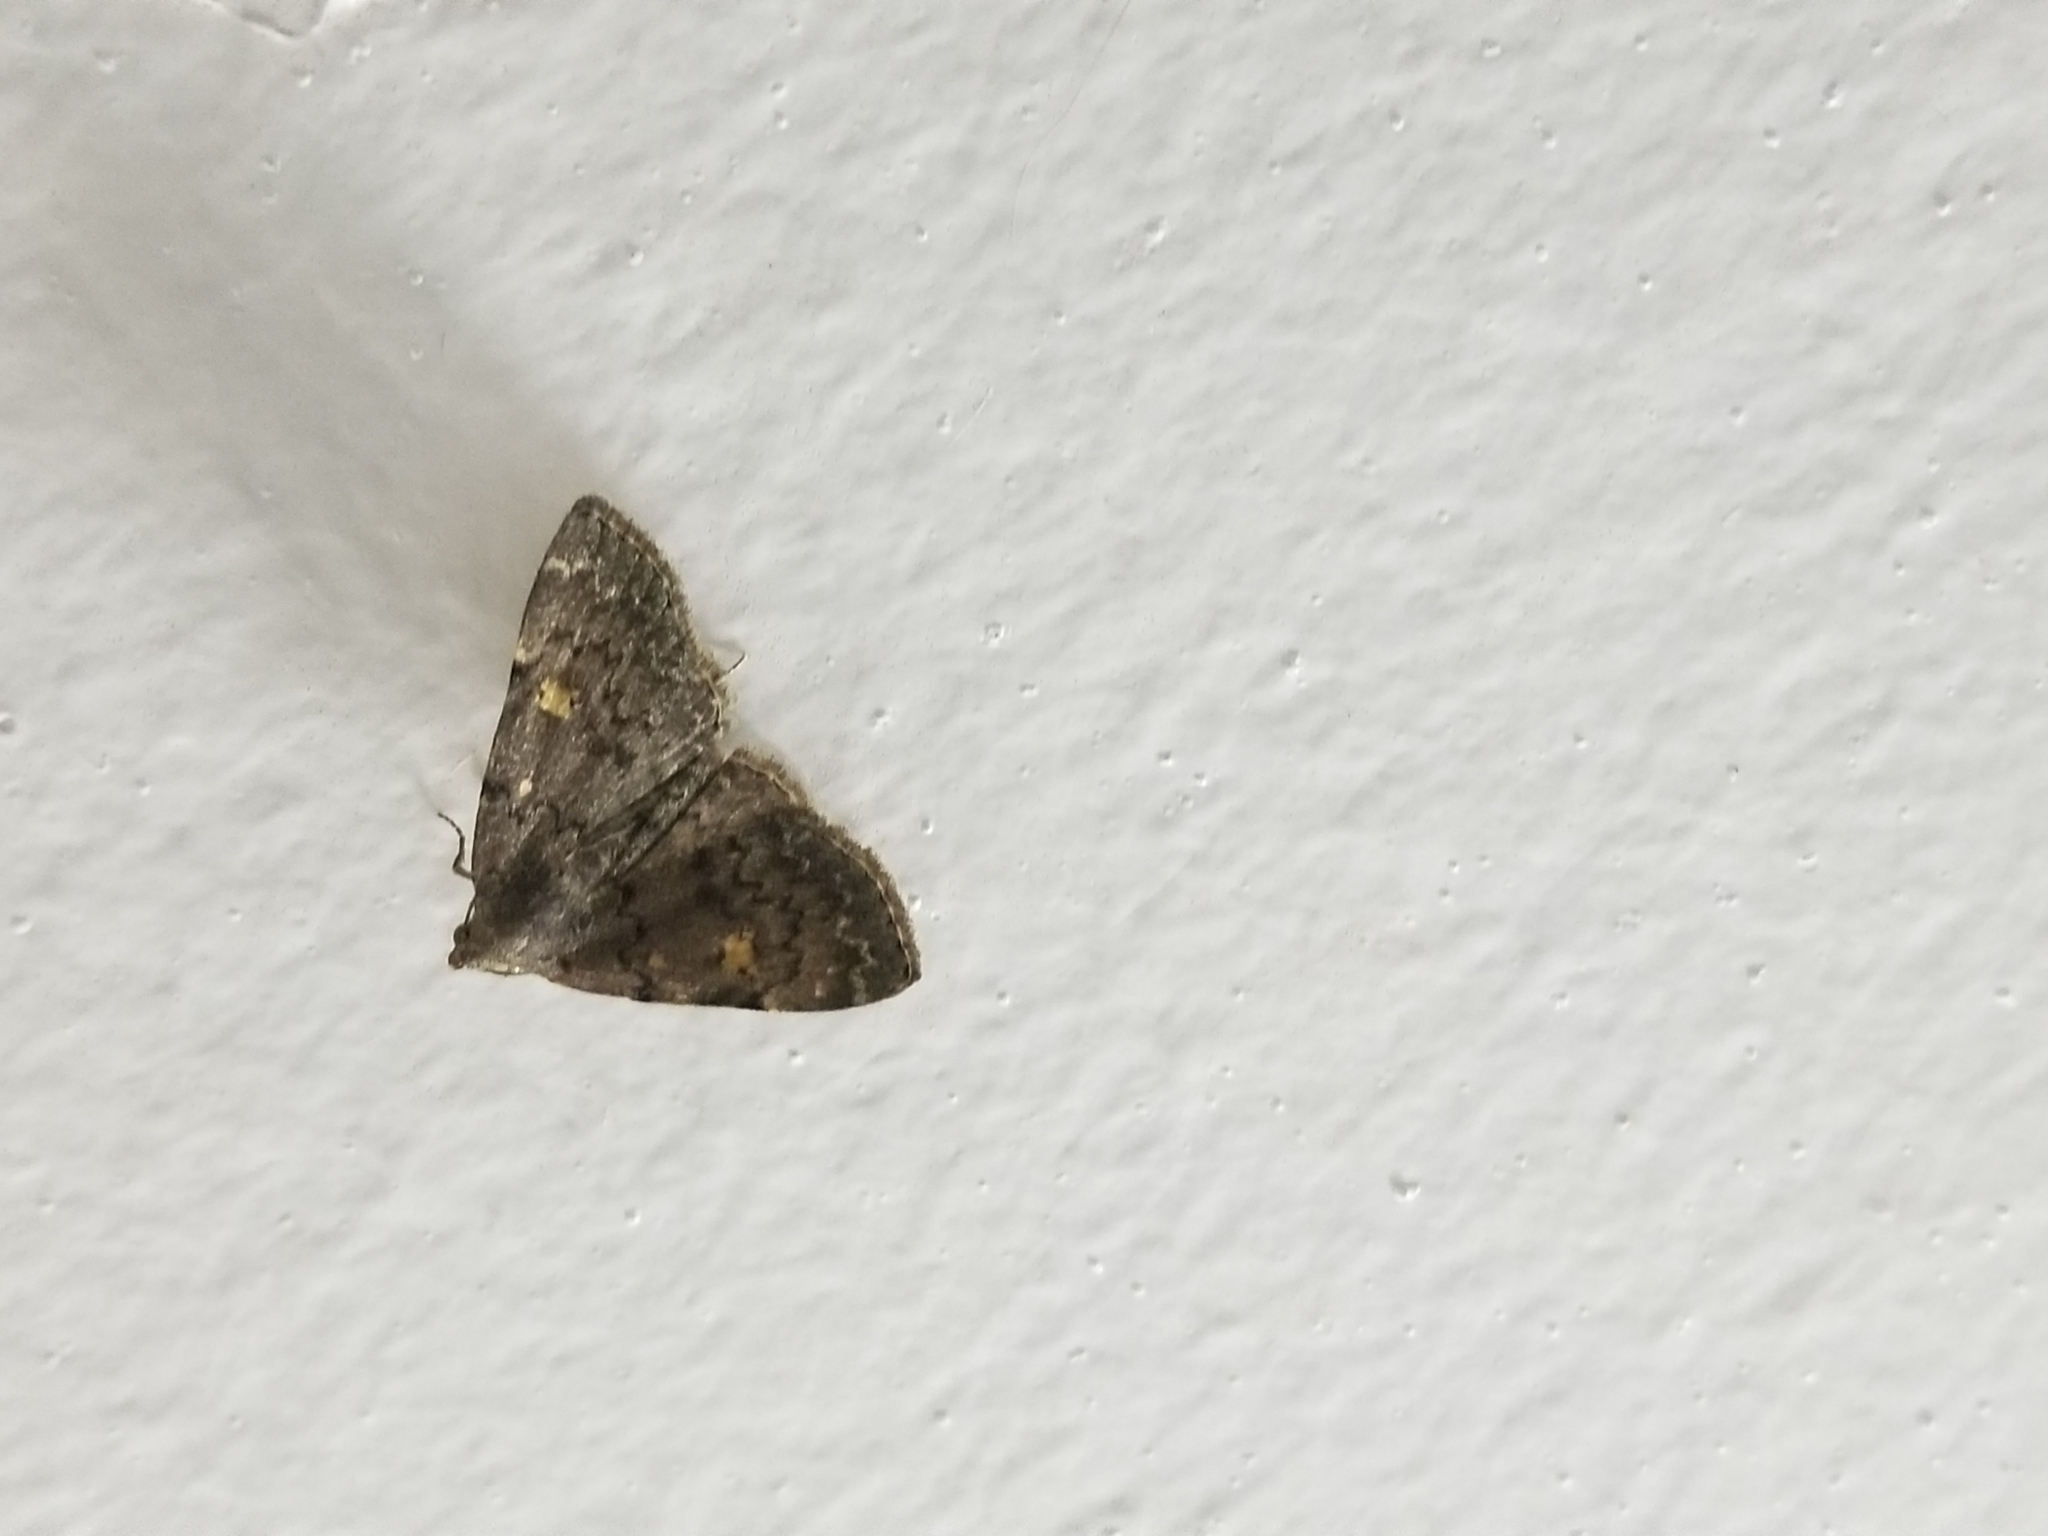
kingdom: Animalia
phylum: Arthropoda
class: Insecta
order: Lepidoptera
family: Erebidae
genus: Idia
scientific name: Idia aemula
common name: Common idia moth
